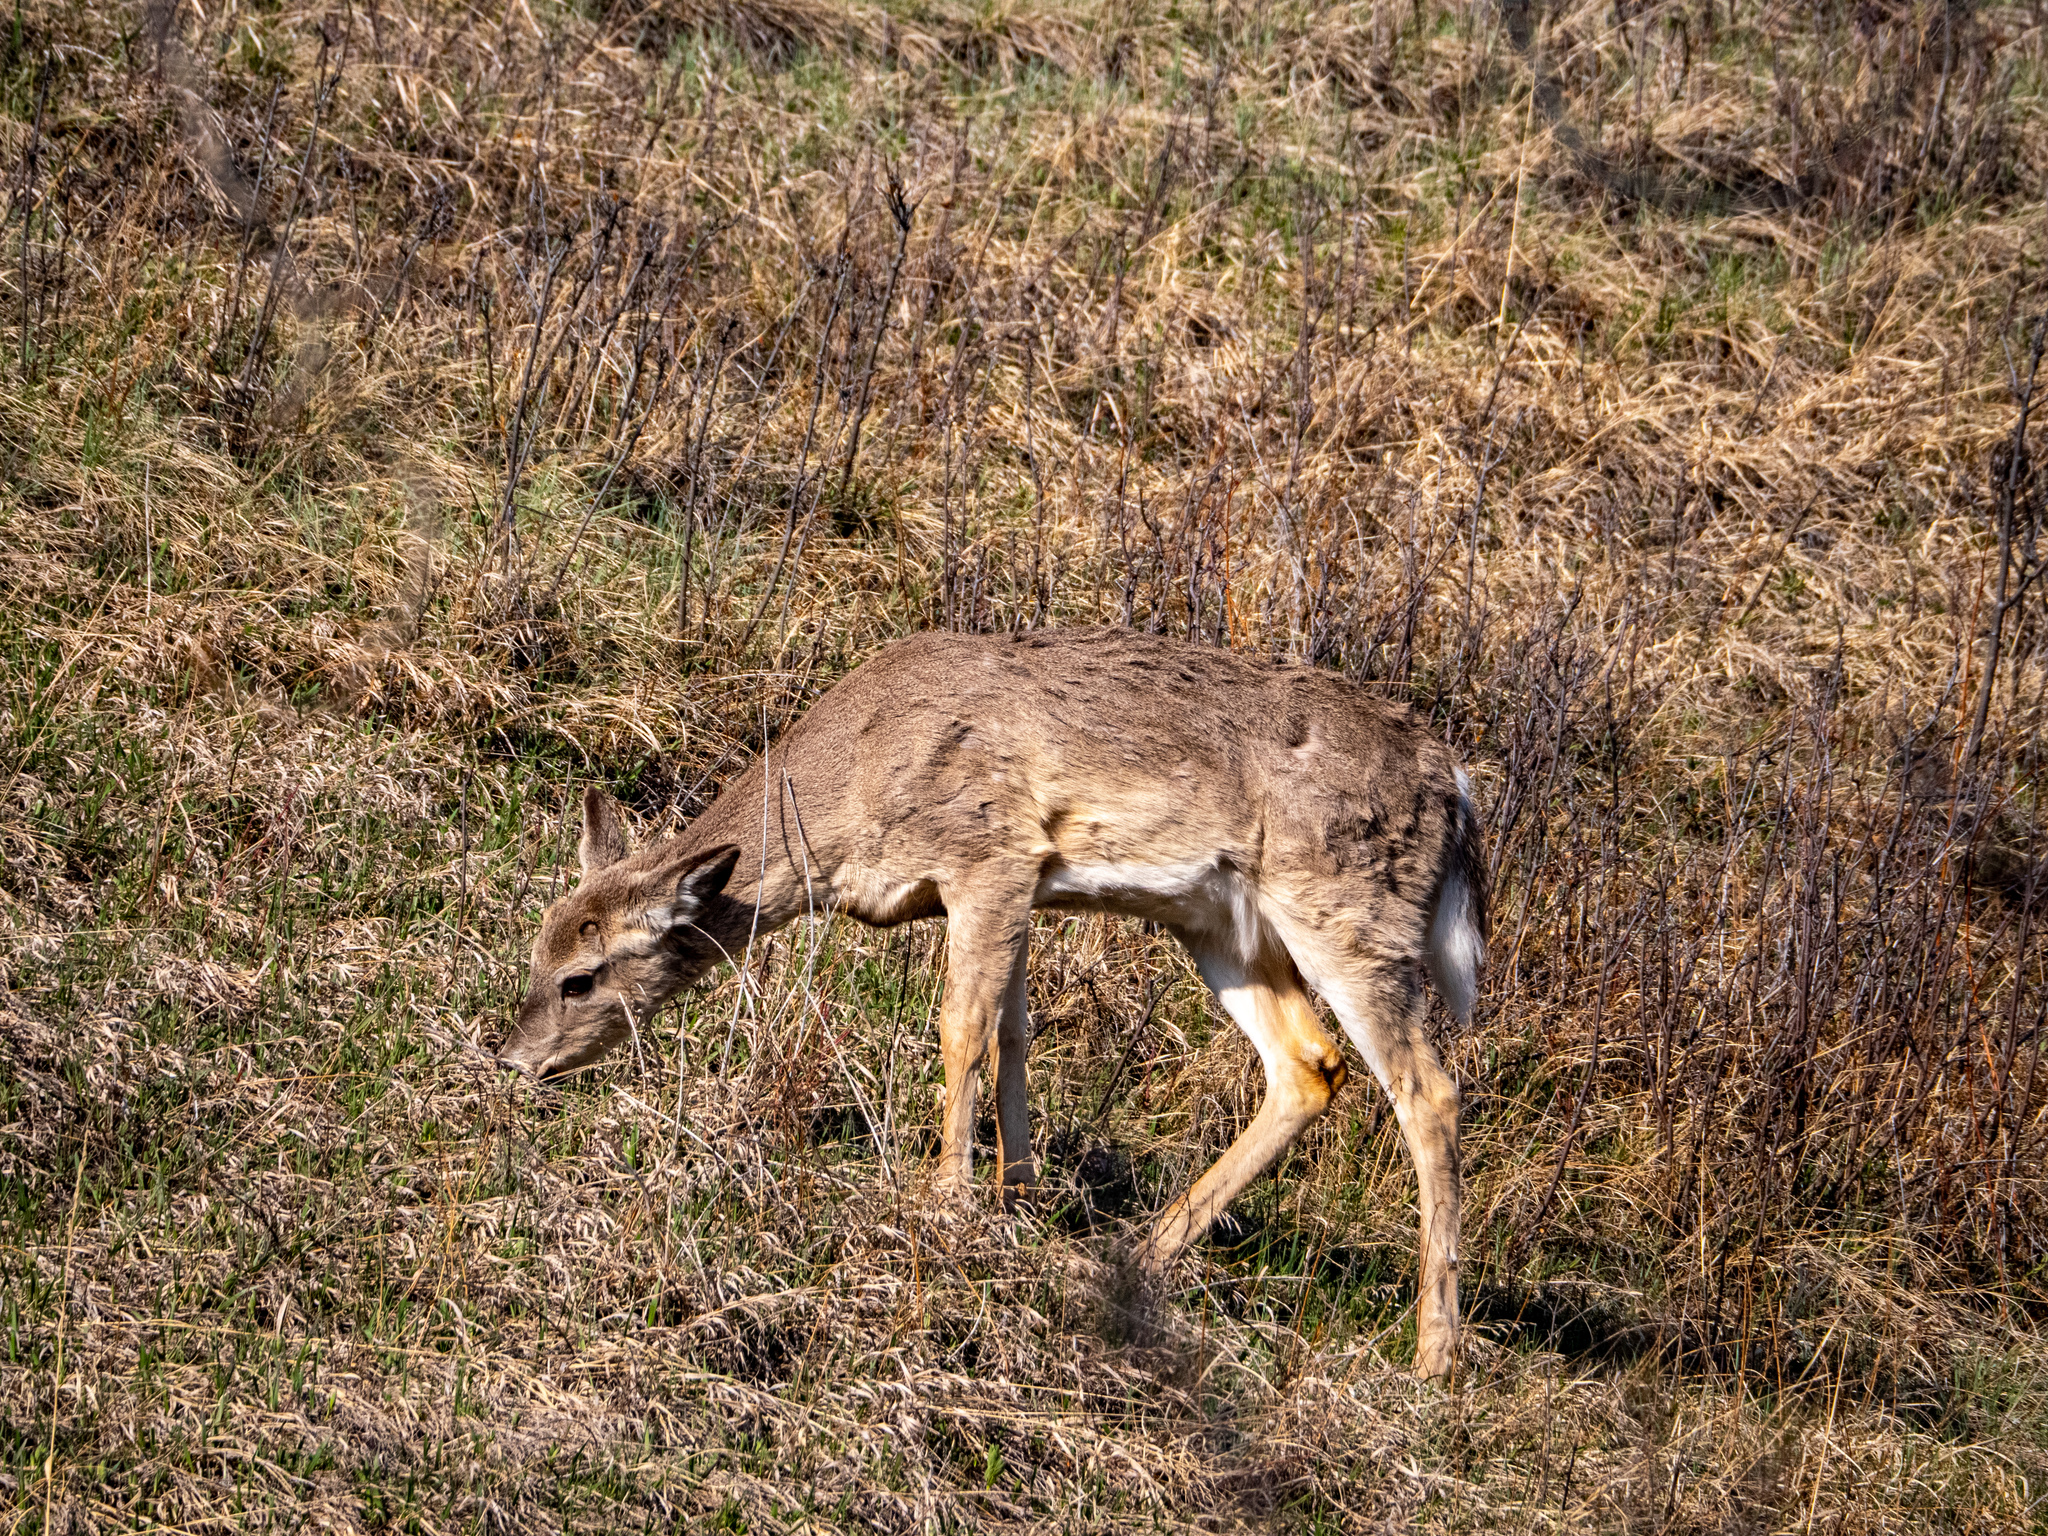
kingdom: Animalia
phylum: Chordata
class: Mammalia
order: Artiodactyla
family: Cervidae
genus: Odocoileus
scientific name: Odocoileus virginianus
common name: White-tailed deer
